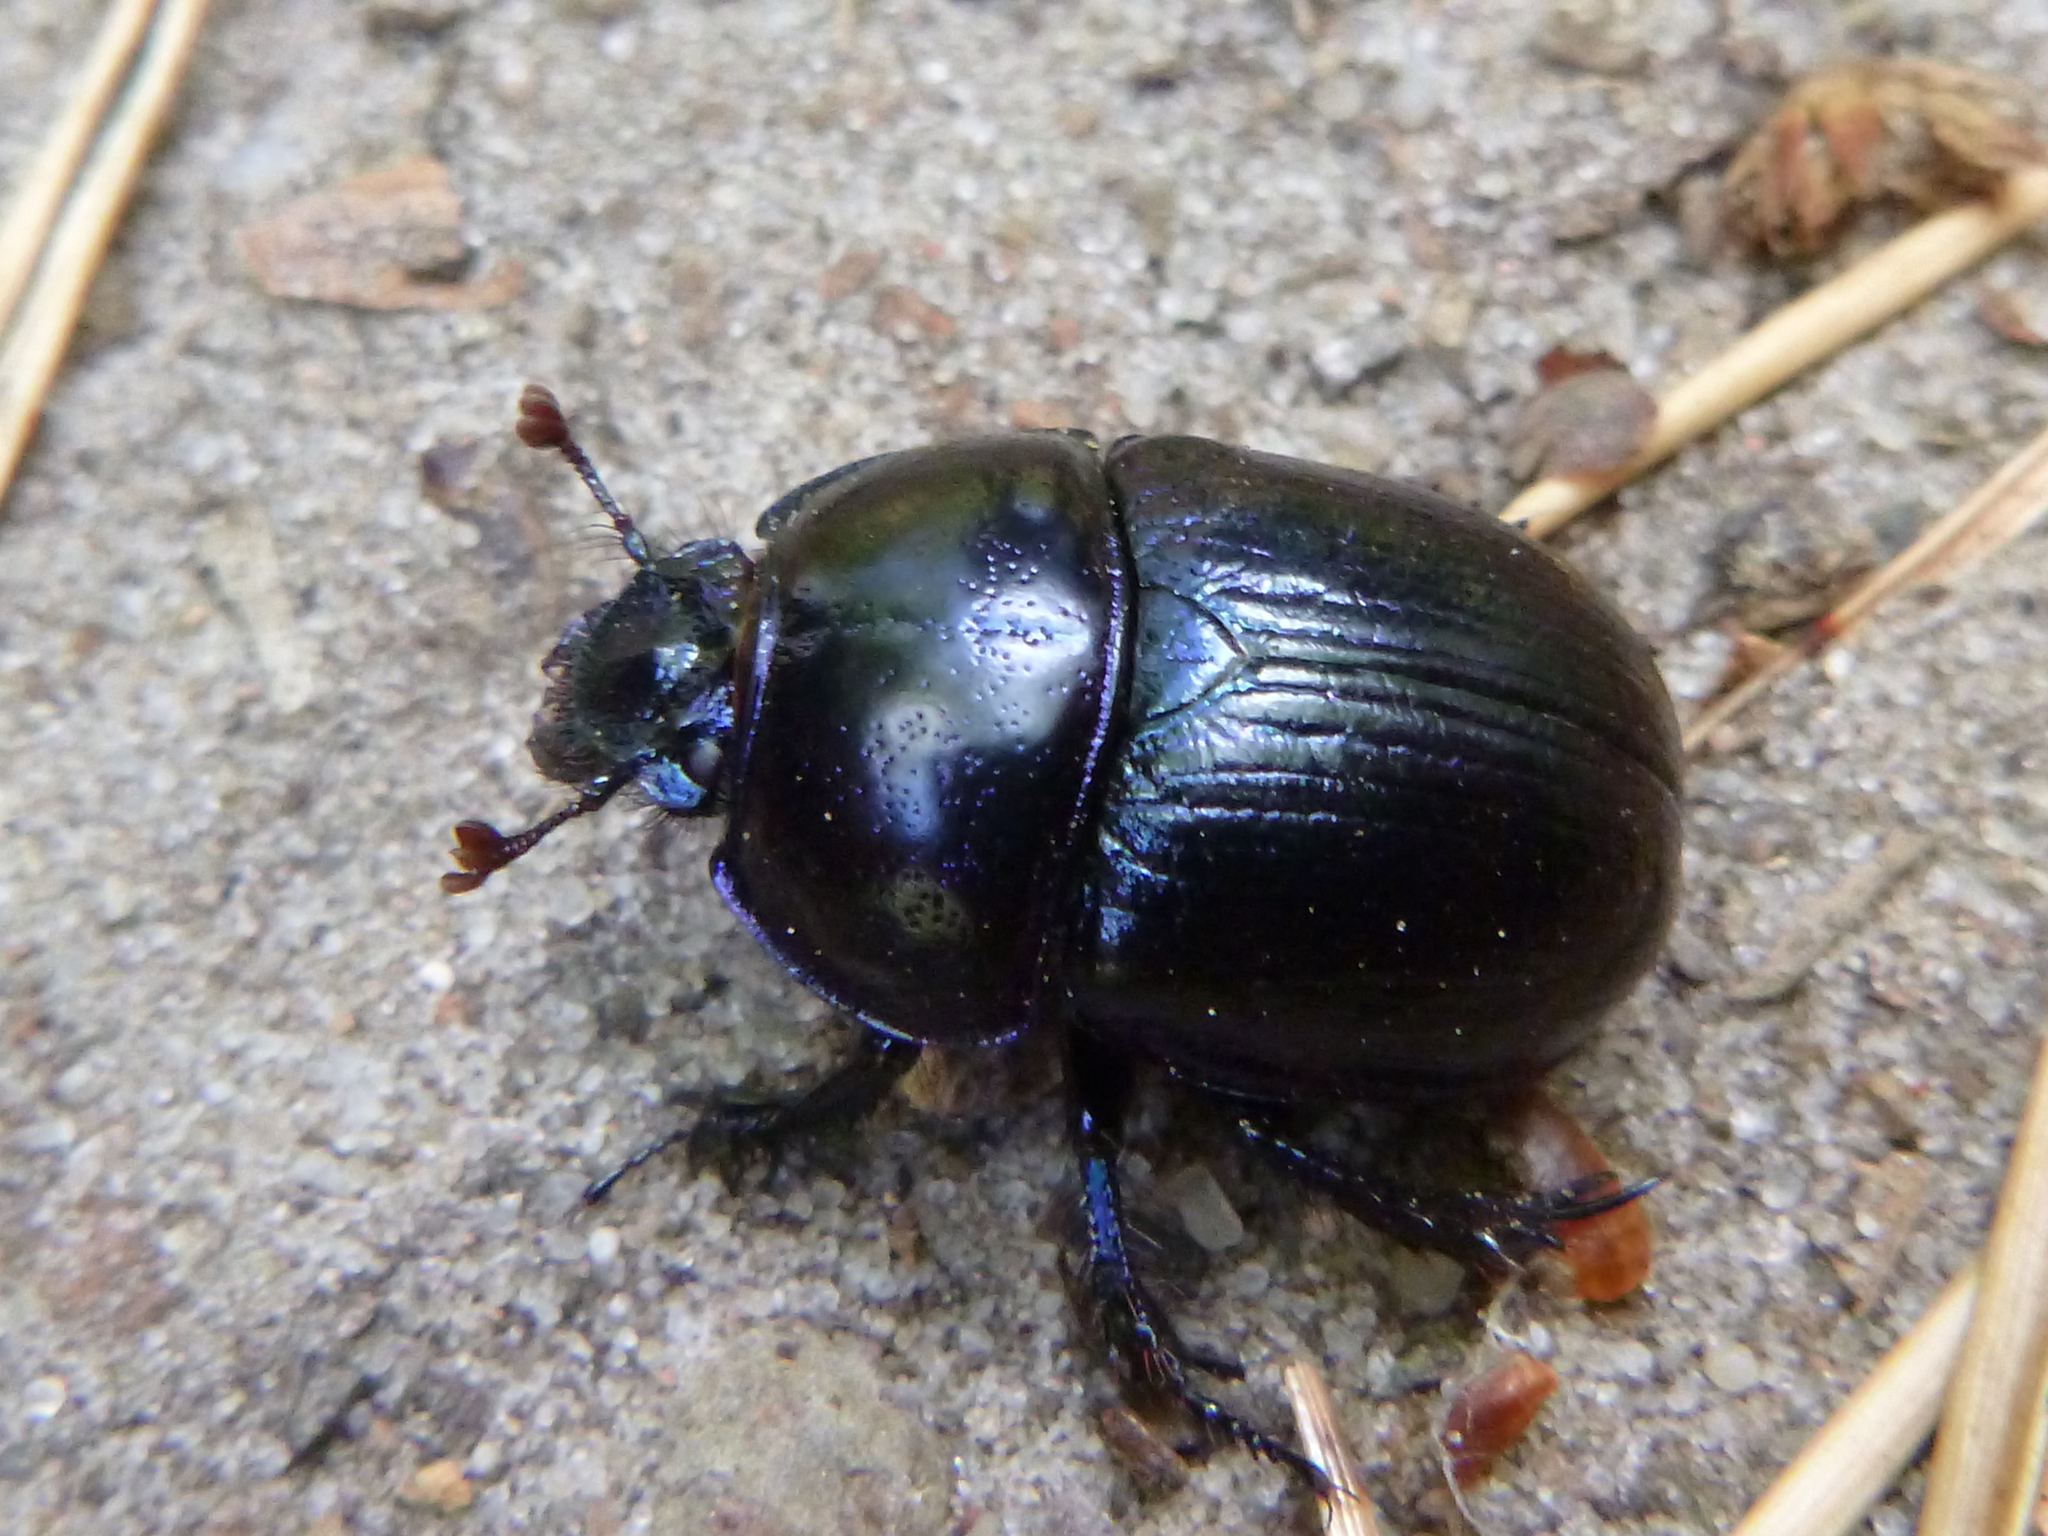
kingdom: Animalia
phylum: Arthropoda
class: Insecta
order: Coleoptera
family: Geotrupidae
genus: Anoplotrupes
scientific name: Anoplotrupes stercorosus
